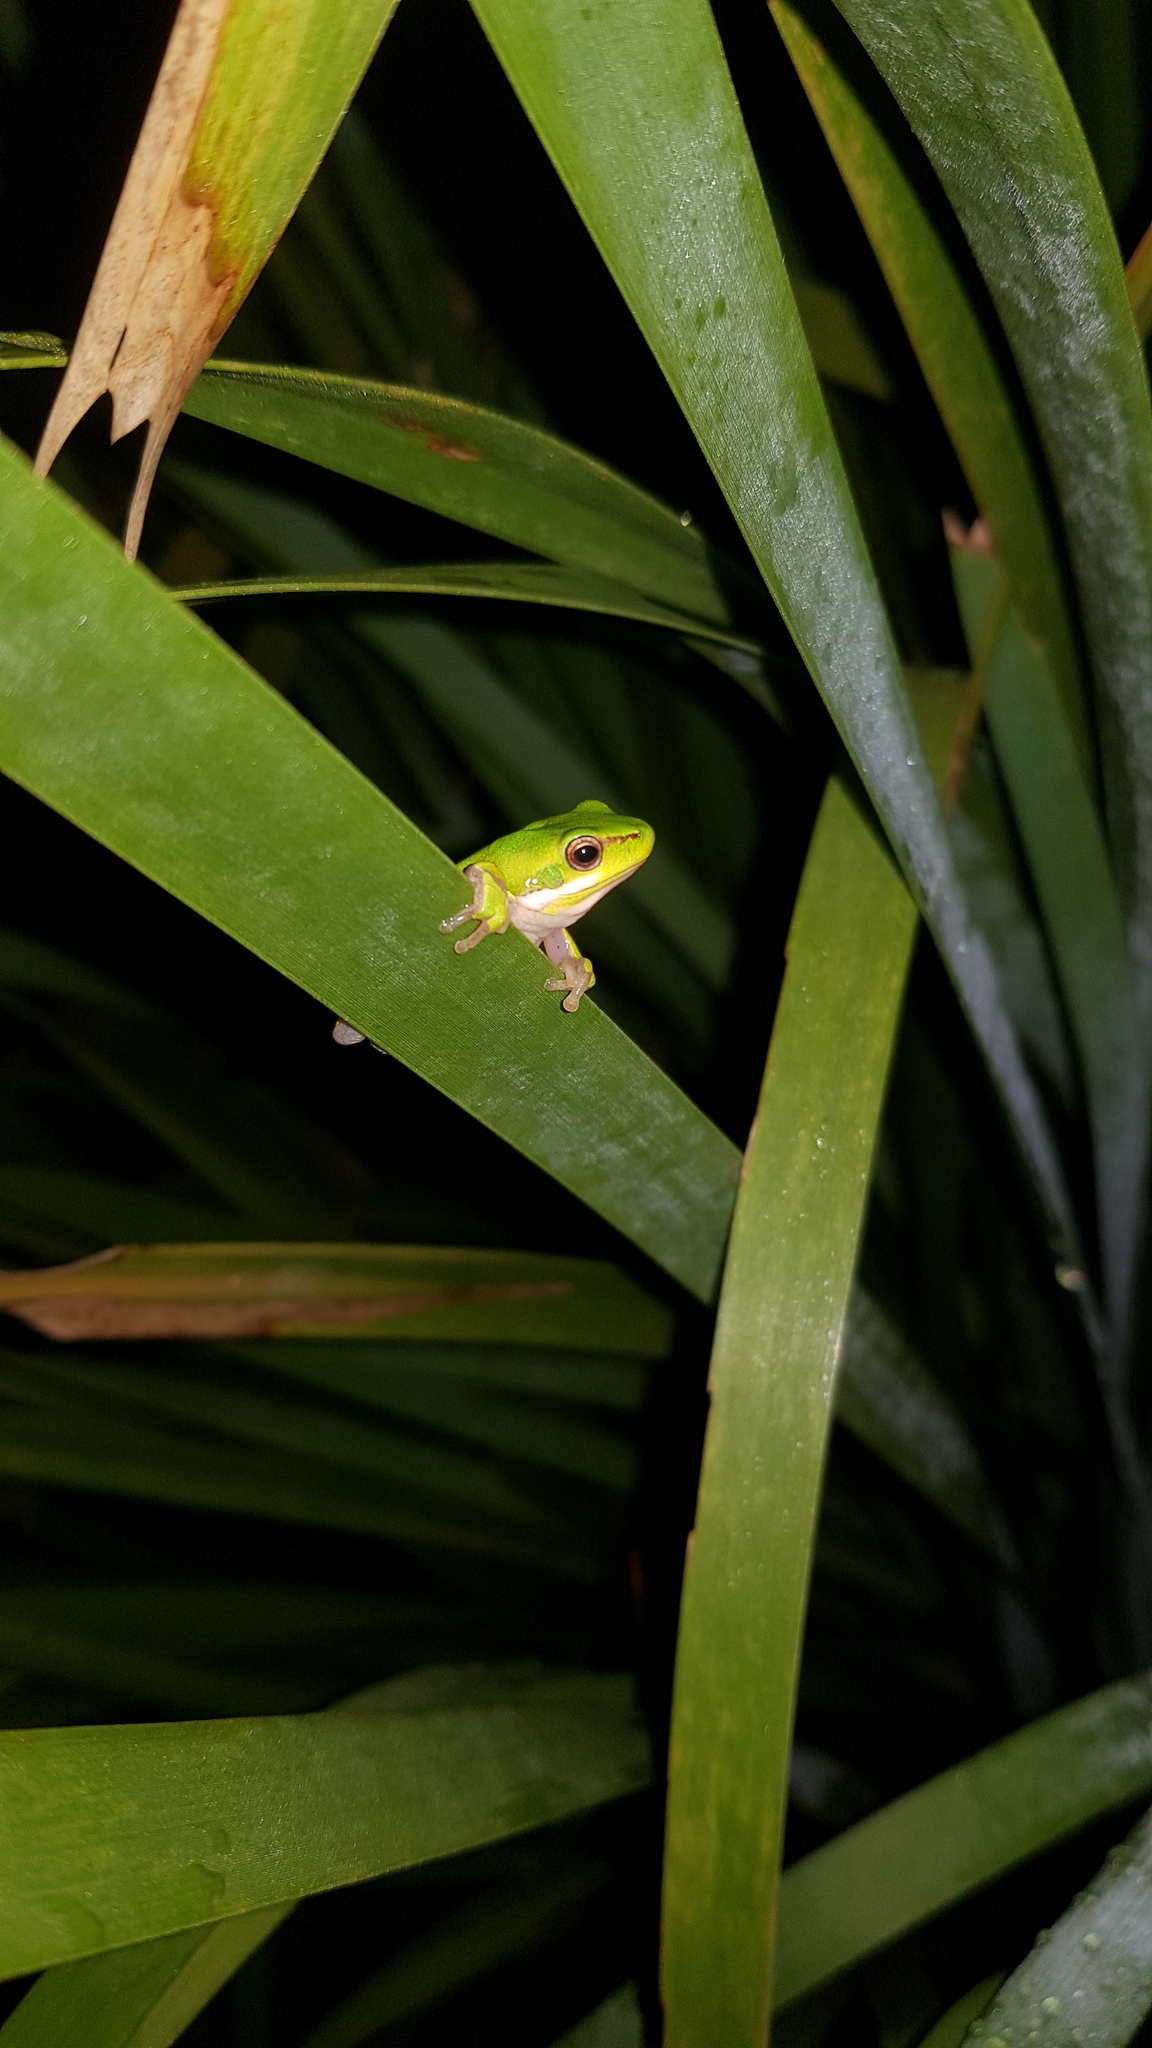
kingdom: Animalia
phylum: Chordata
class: Amphibia
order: Anura
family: Pelodryadidae
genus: Litoria
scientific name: Litoria fallax
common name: Eastern dwarf treefrog
